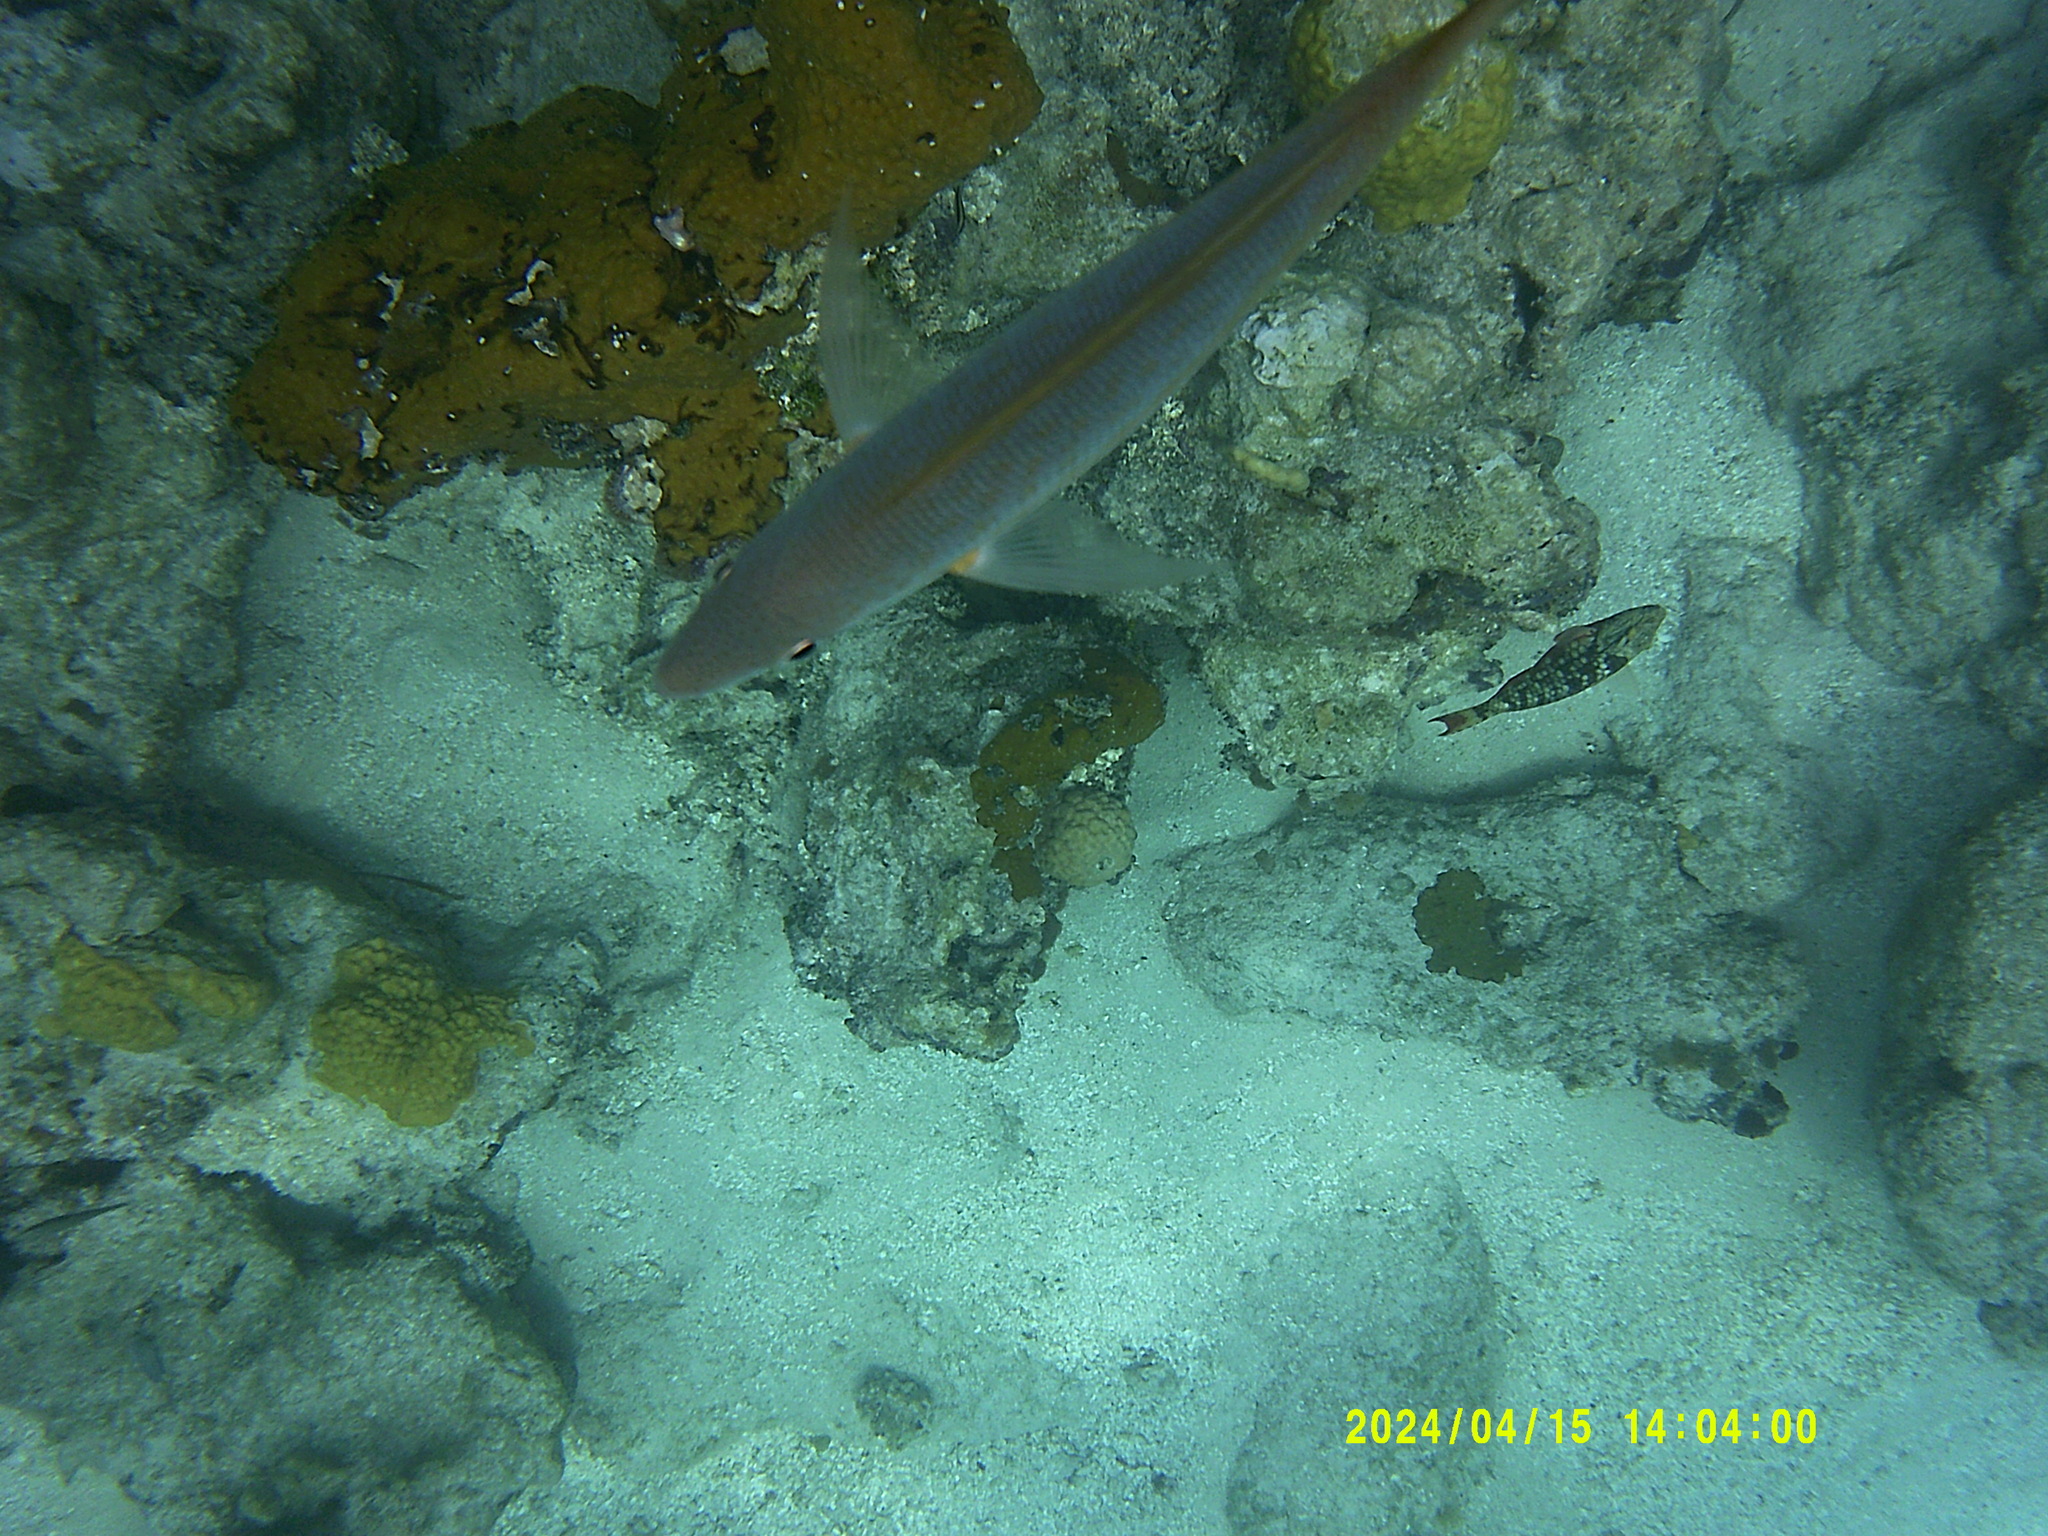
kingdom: Animalia
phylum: Chordata
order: Perciformes
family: Scaridae
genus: Sparisoma
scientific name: Sparisoma viride
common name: Stoplight parrotfish
